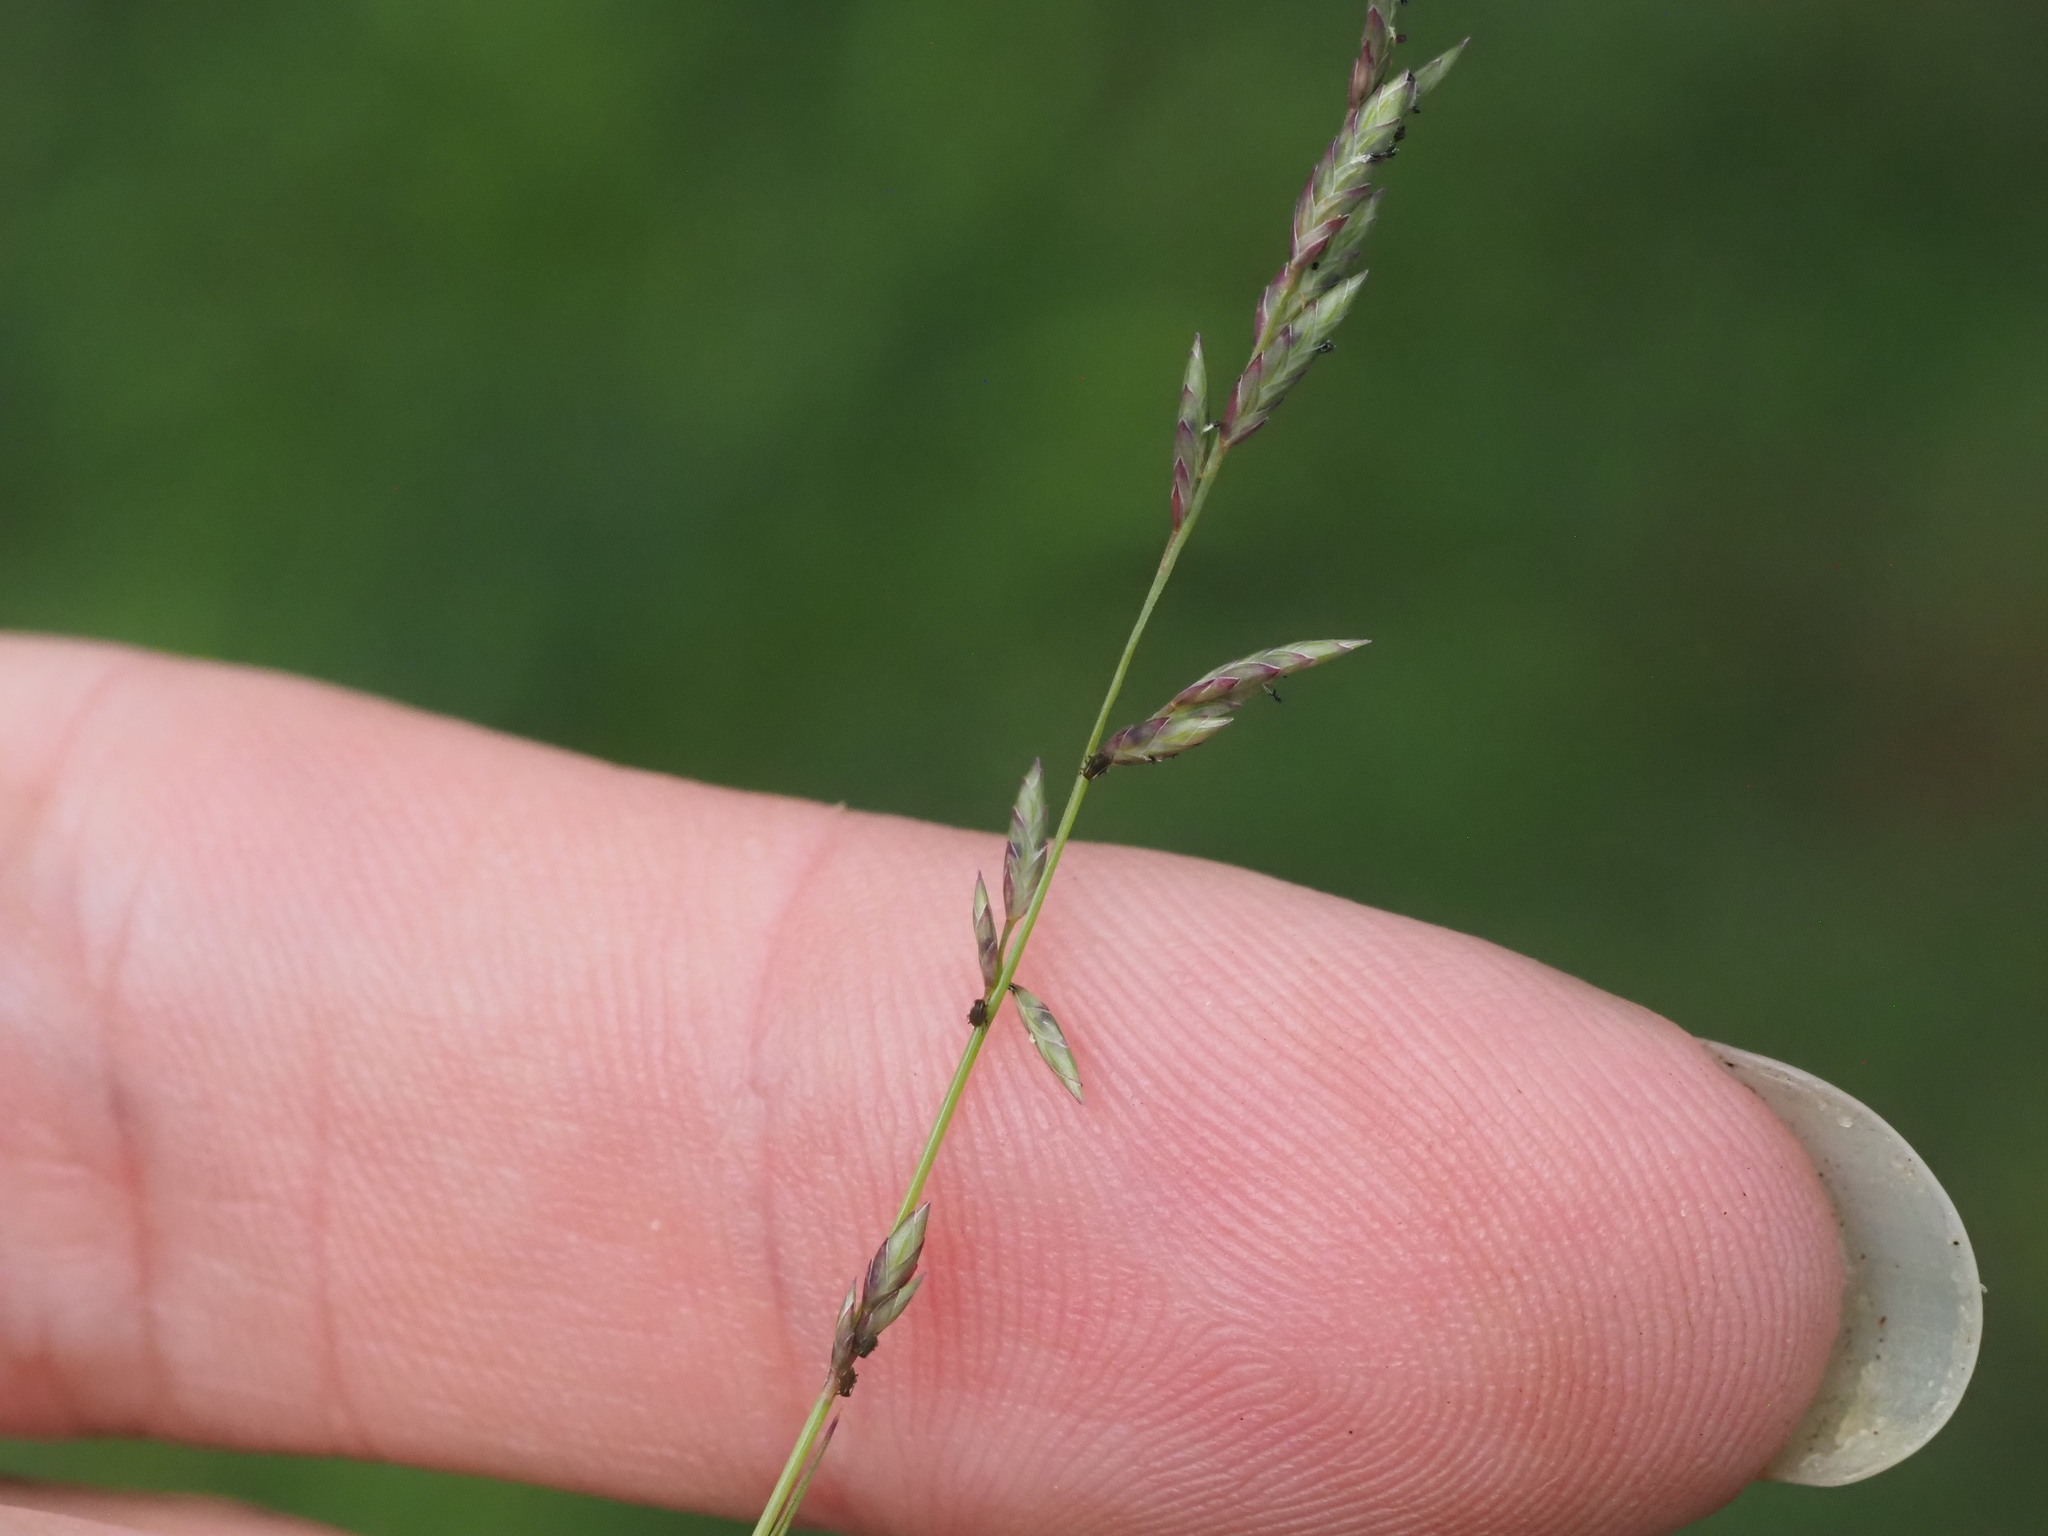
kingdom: Plantae
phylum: Tracheophyta
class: Liliopsida
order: Poales
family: Poaceae
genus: Eragrostis
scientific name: Eragrostis brownii
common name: Lovegrass
